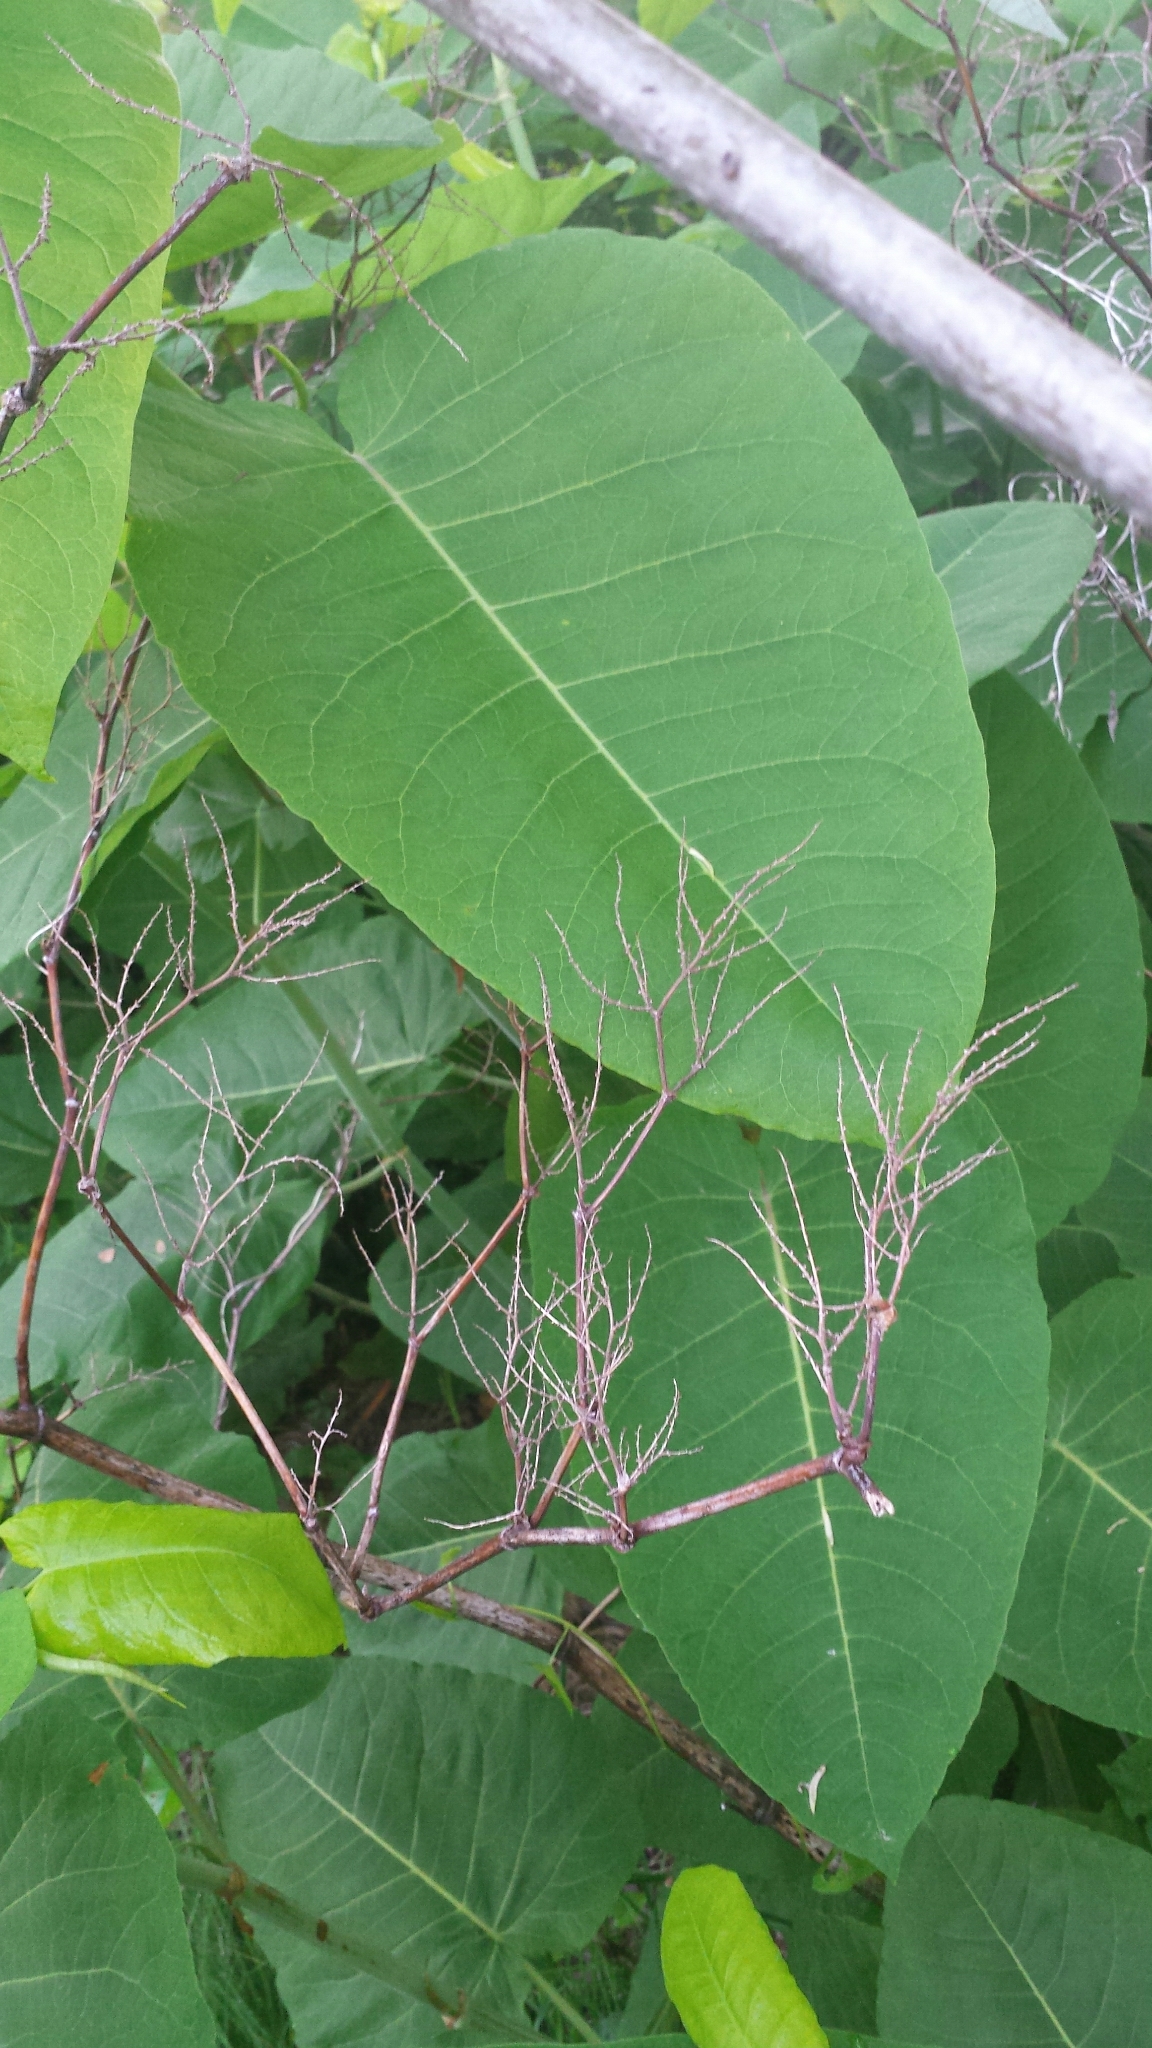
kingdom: Plantae
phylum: Tracheophyta
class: Magnoliopsida
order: Caryophyllales
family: Polygonaceae
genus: Reynoutria
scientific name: Reynoutria sachalinensis
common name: Giant knotweed
